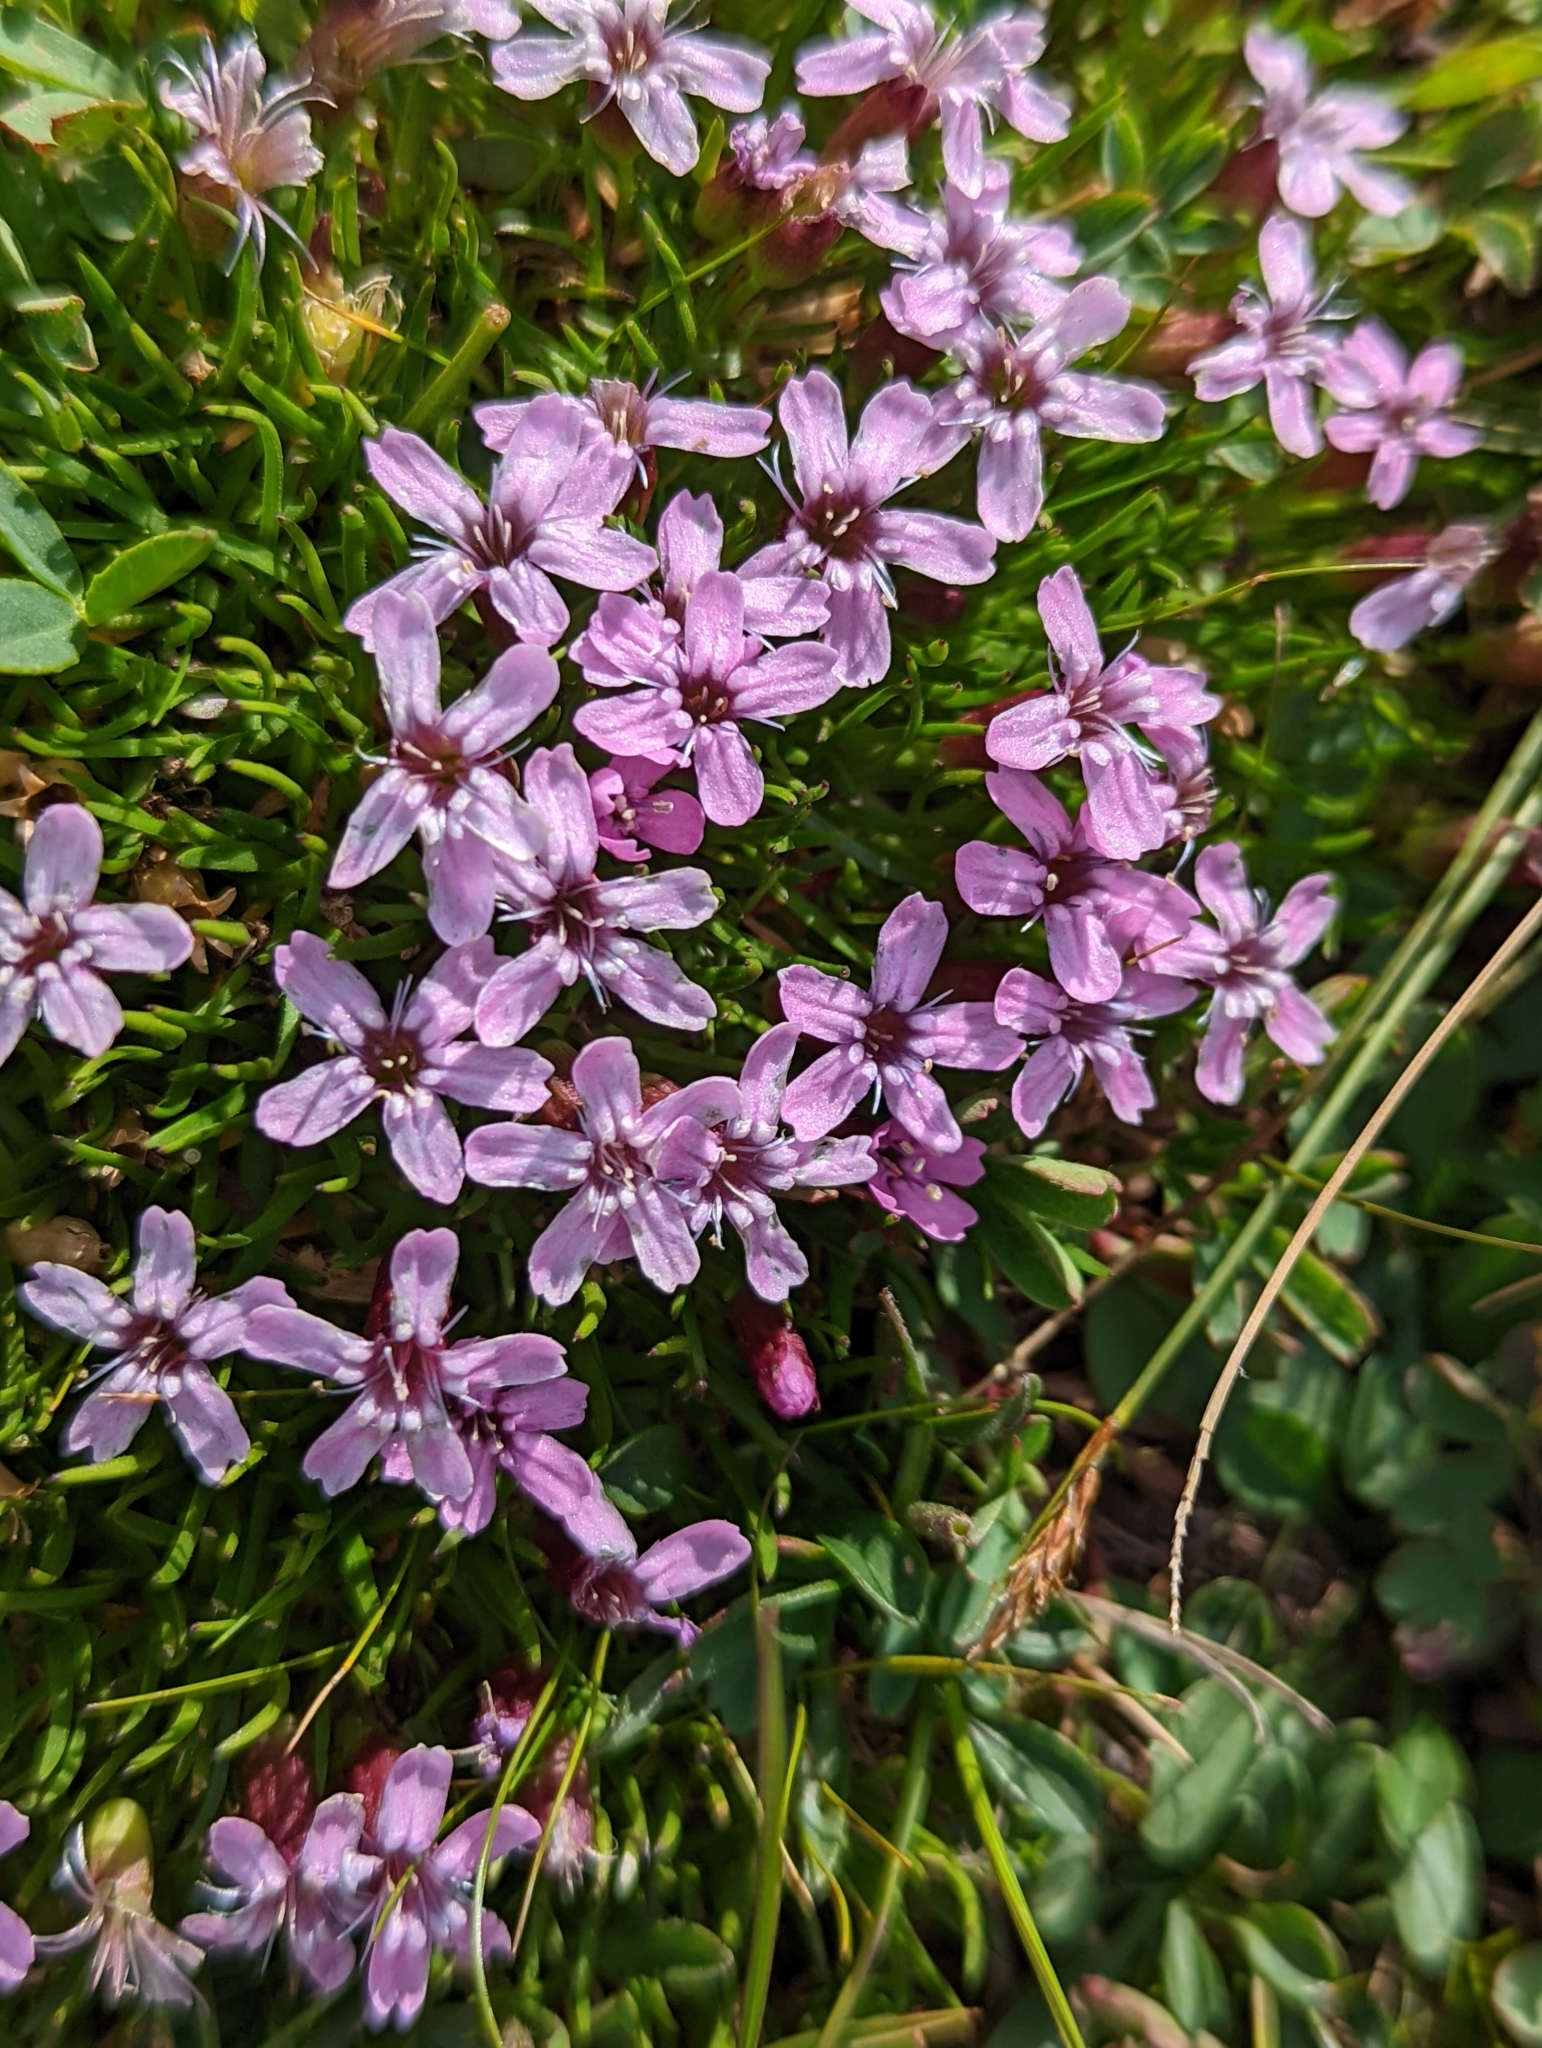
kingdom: Plantae
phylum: Tracheophyta
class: Magnoliopsida
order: Caryophyllales
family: Caryophyllaceae
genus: Silene
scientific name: Silene acaulis
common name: Moss campion
